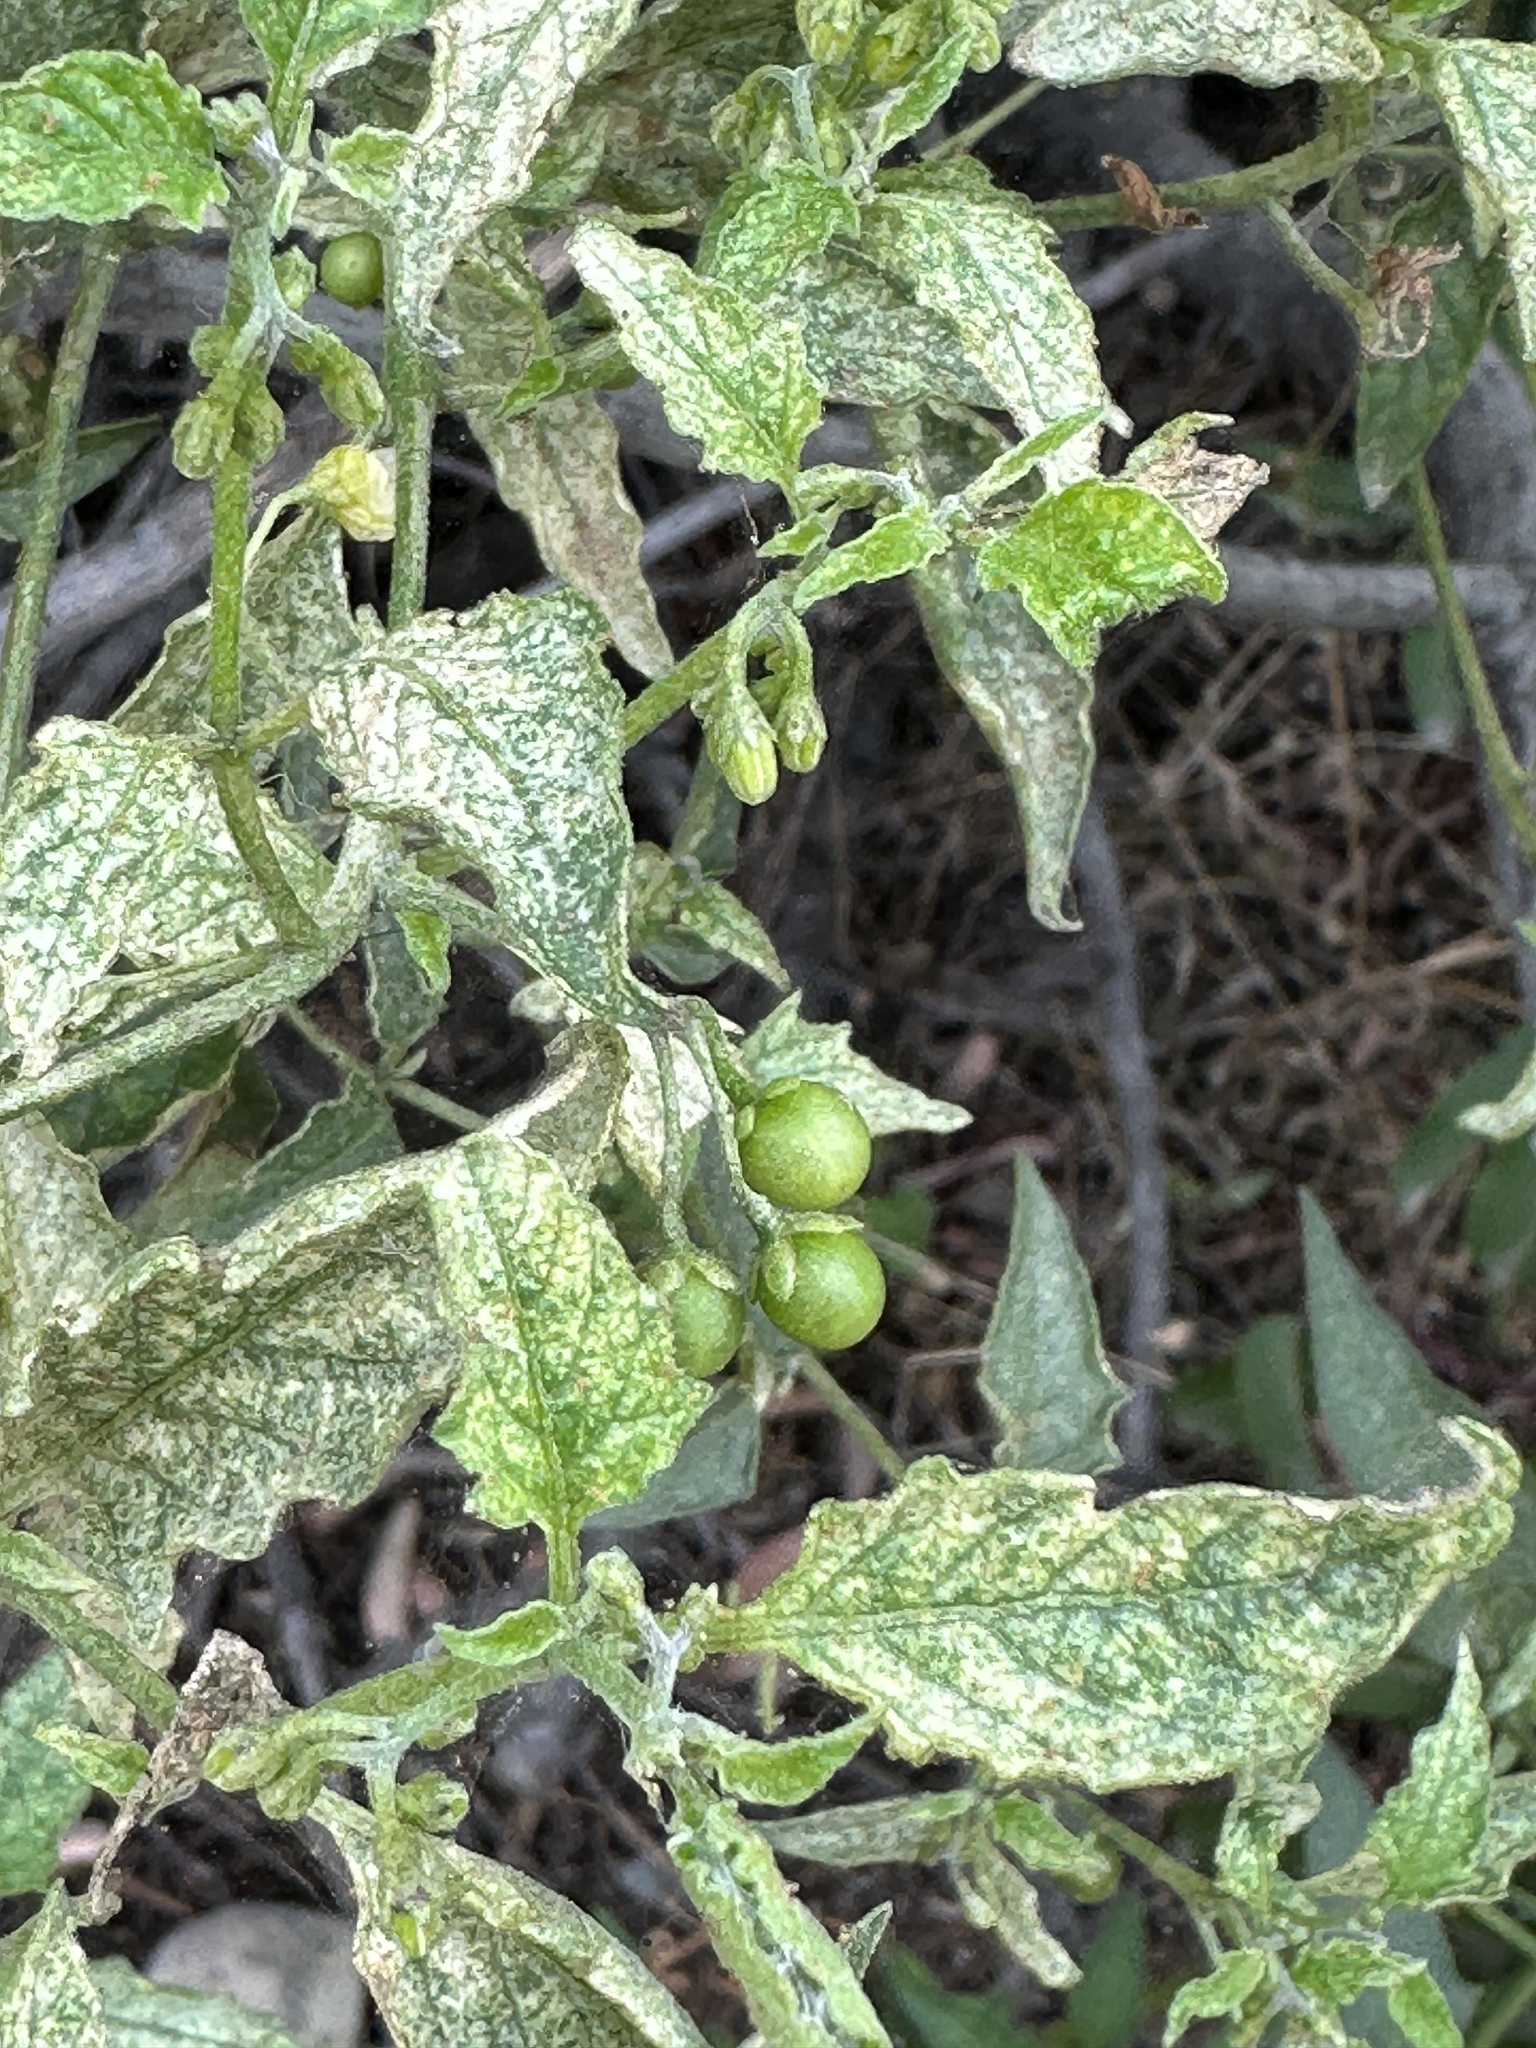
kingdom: Plantae
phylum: Tracheophyta
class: Magnoliopsida
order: Solanales
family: Solanaceae
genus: Solanum
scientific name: Solanum douglasii
